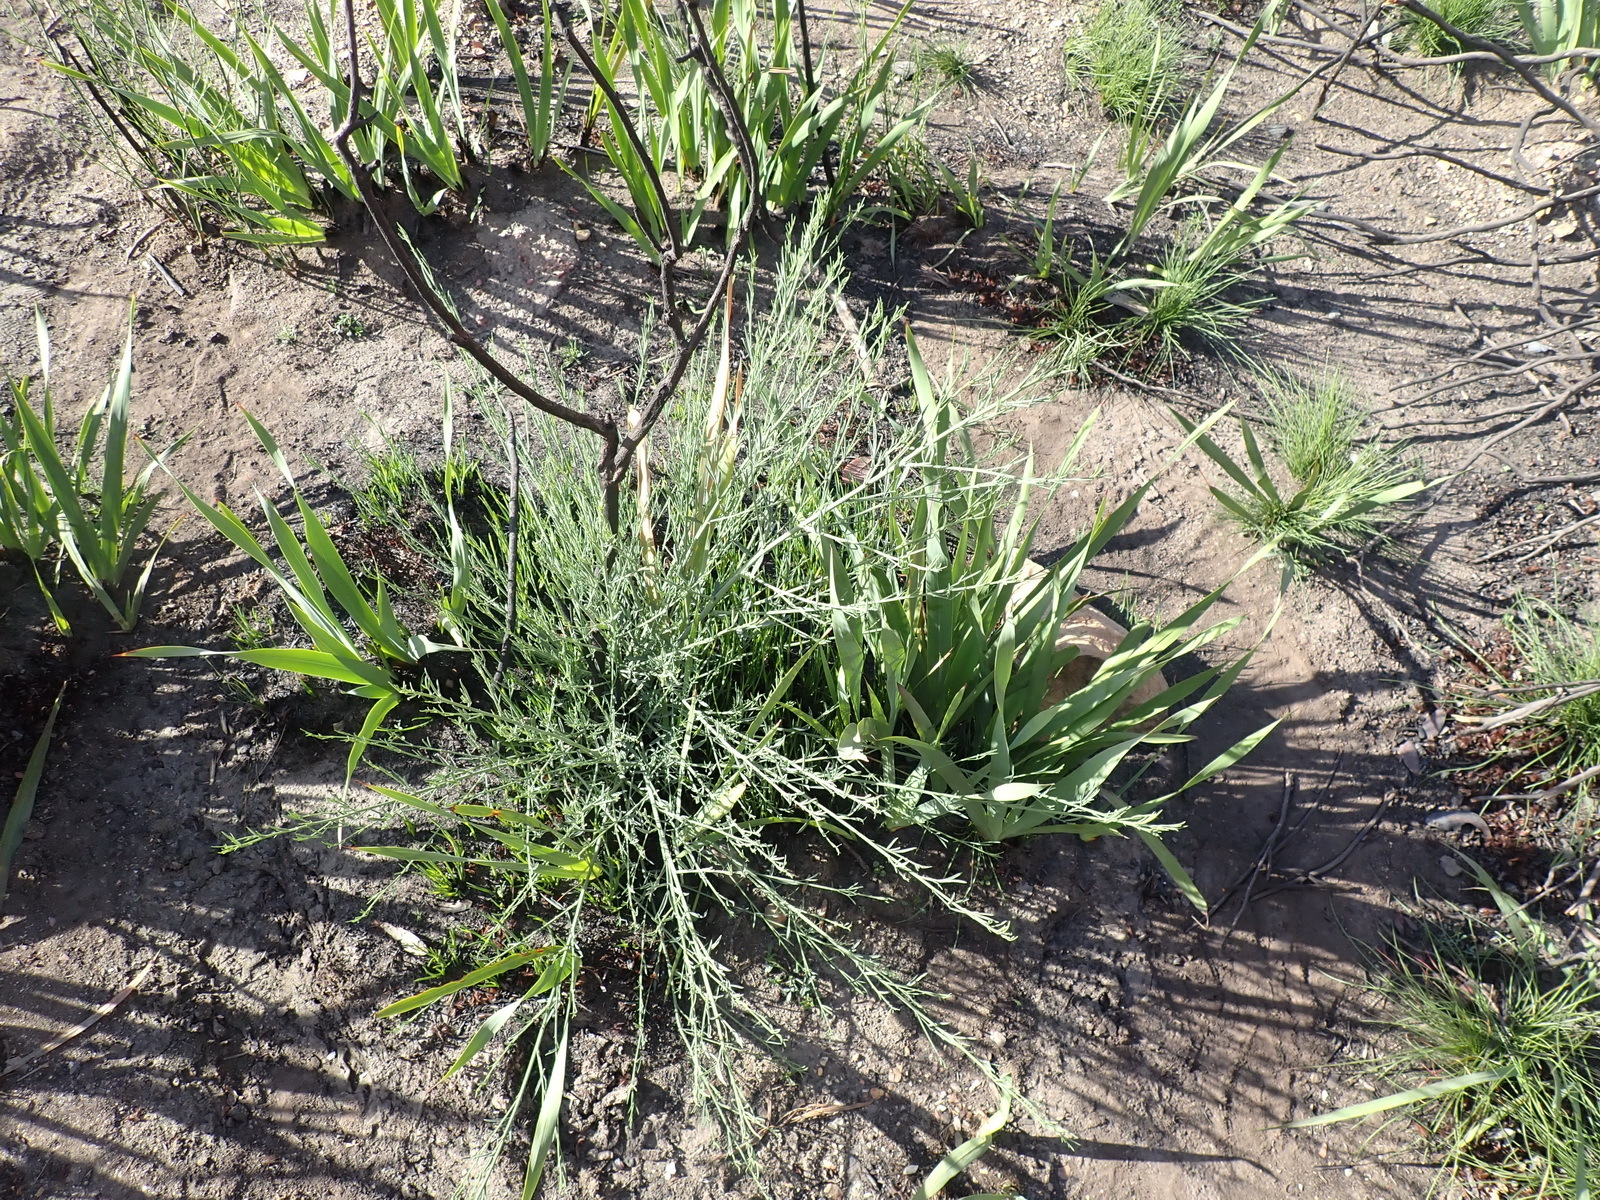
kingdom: Plantae
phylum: Tracheophyta
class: Magnoliopsida
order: Fabales
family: Fabaceae
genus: Psoralea
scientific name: Psoralea forbesiae
